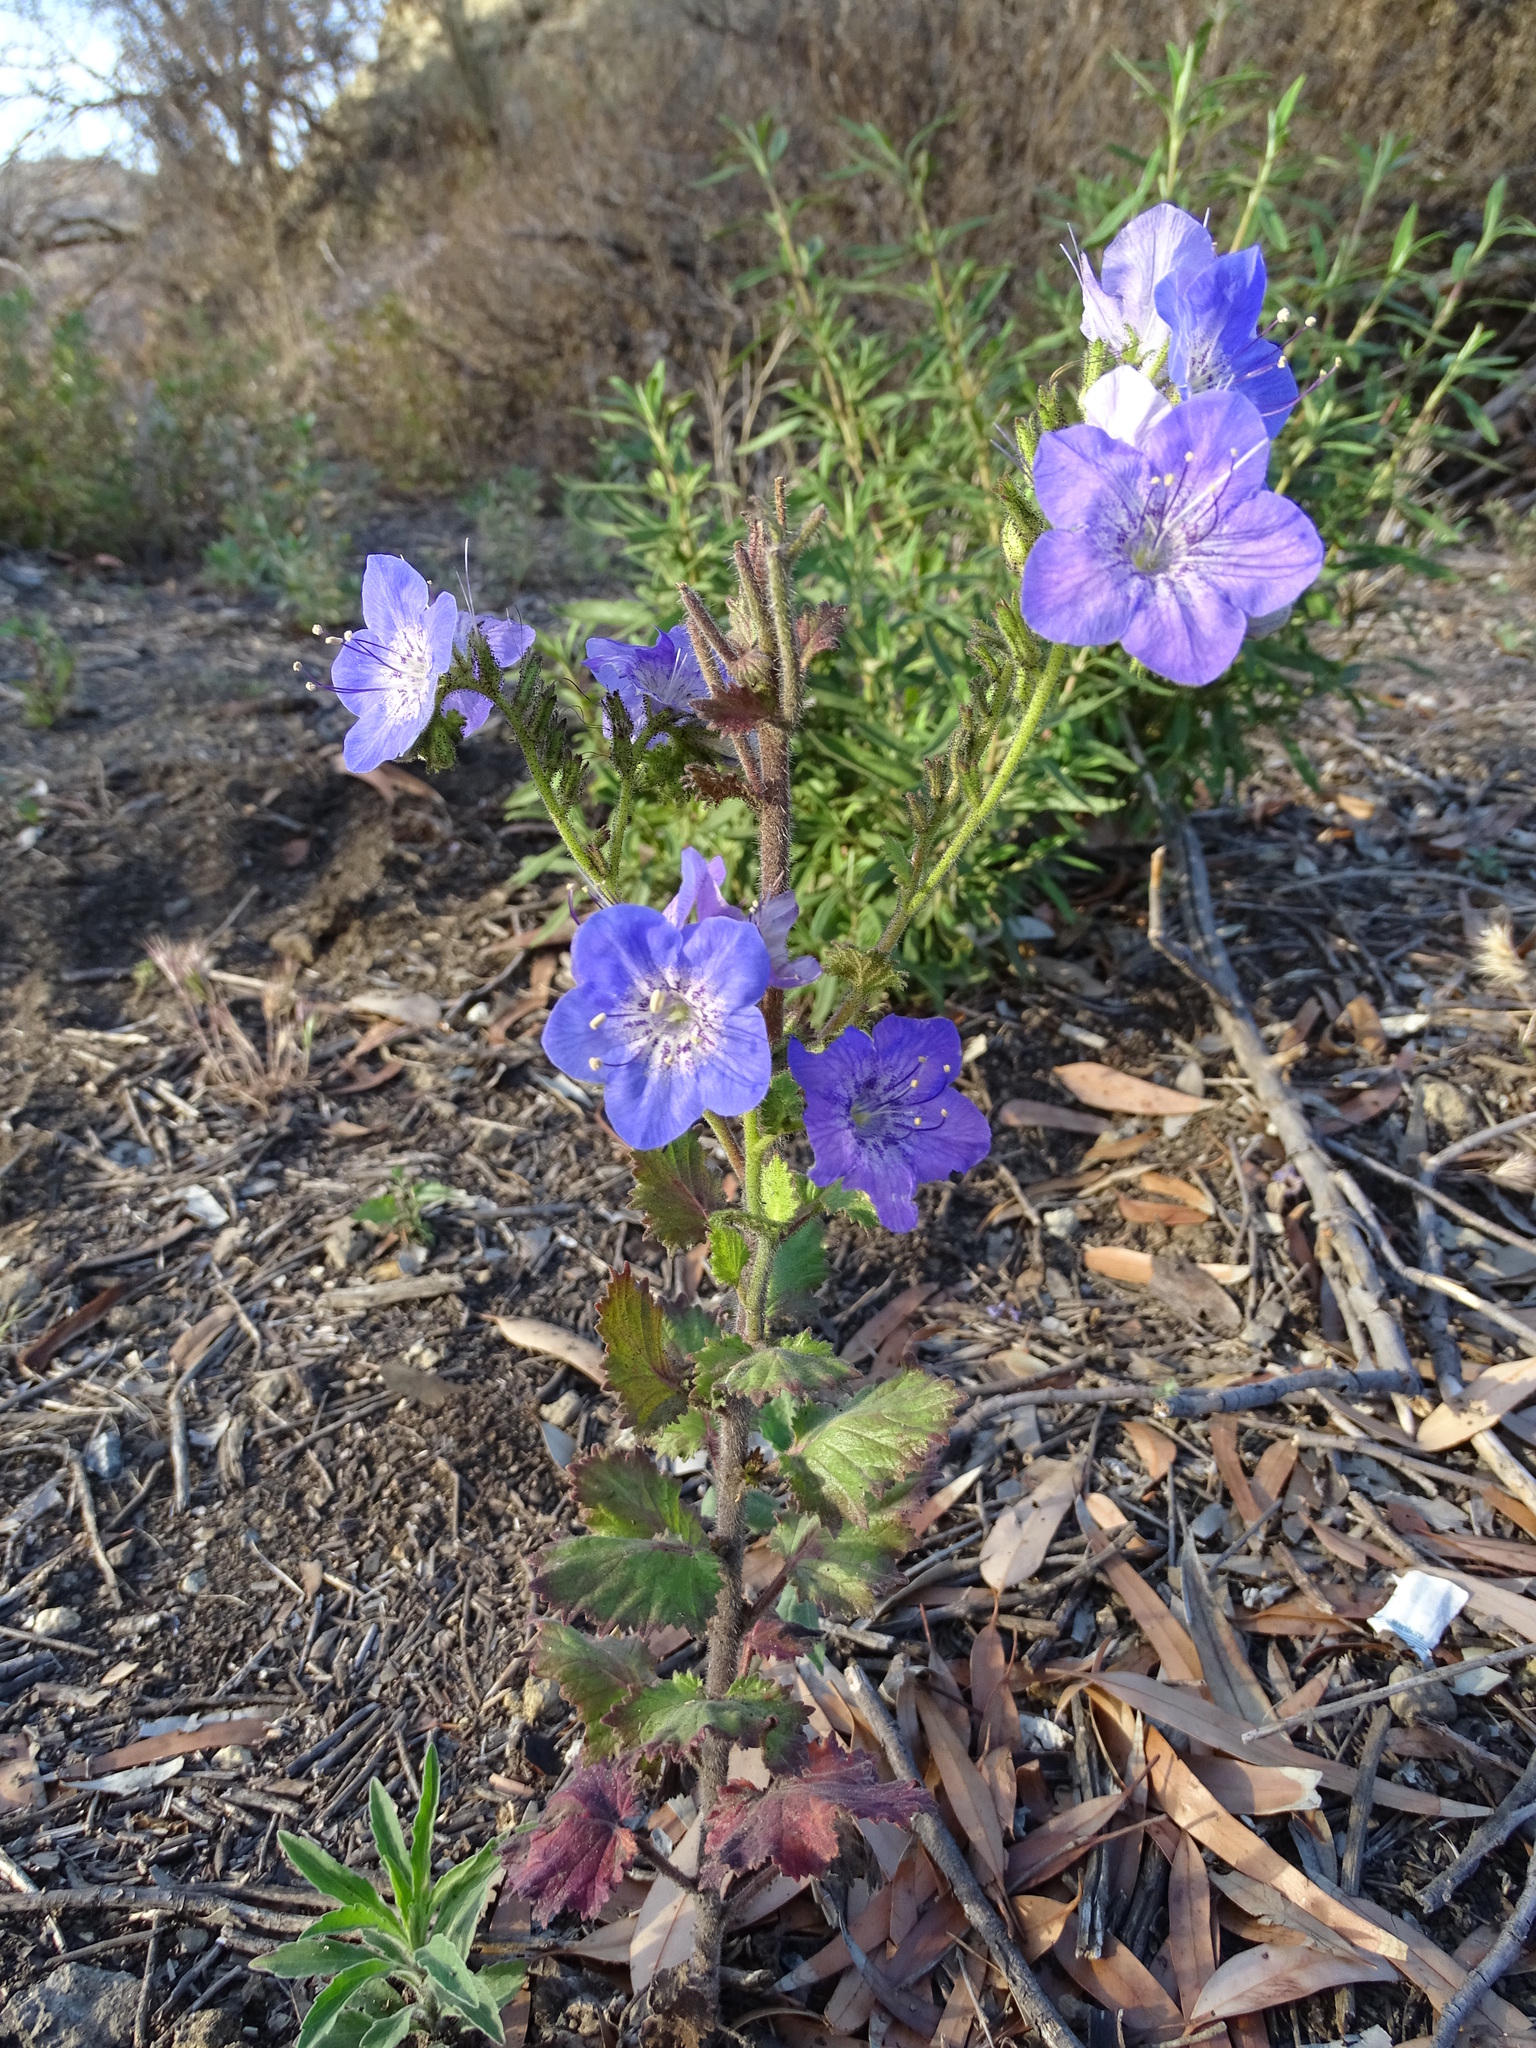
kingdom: Plantae
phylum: Tracheophyta
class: Magnoliopsida
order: Boraginales
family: Hydrophyllaceae
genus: Phacelia
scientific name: Phacelia grandiflora
